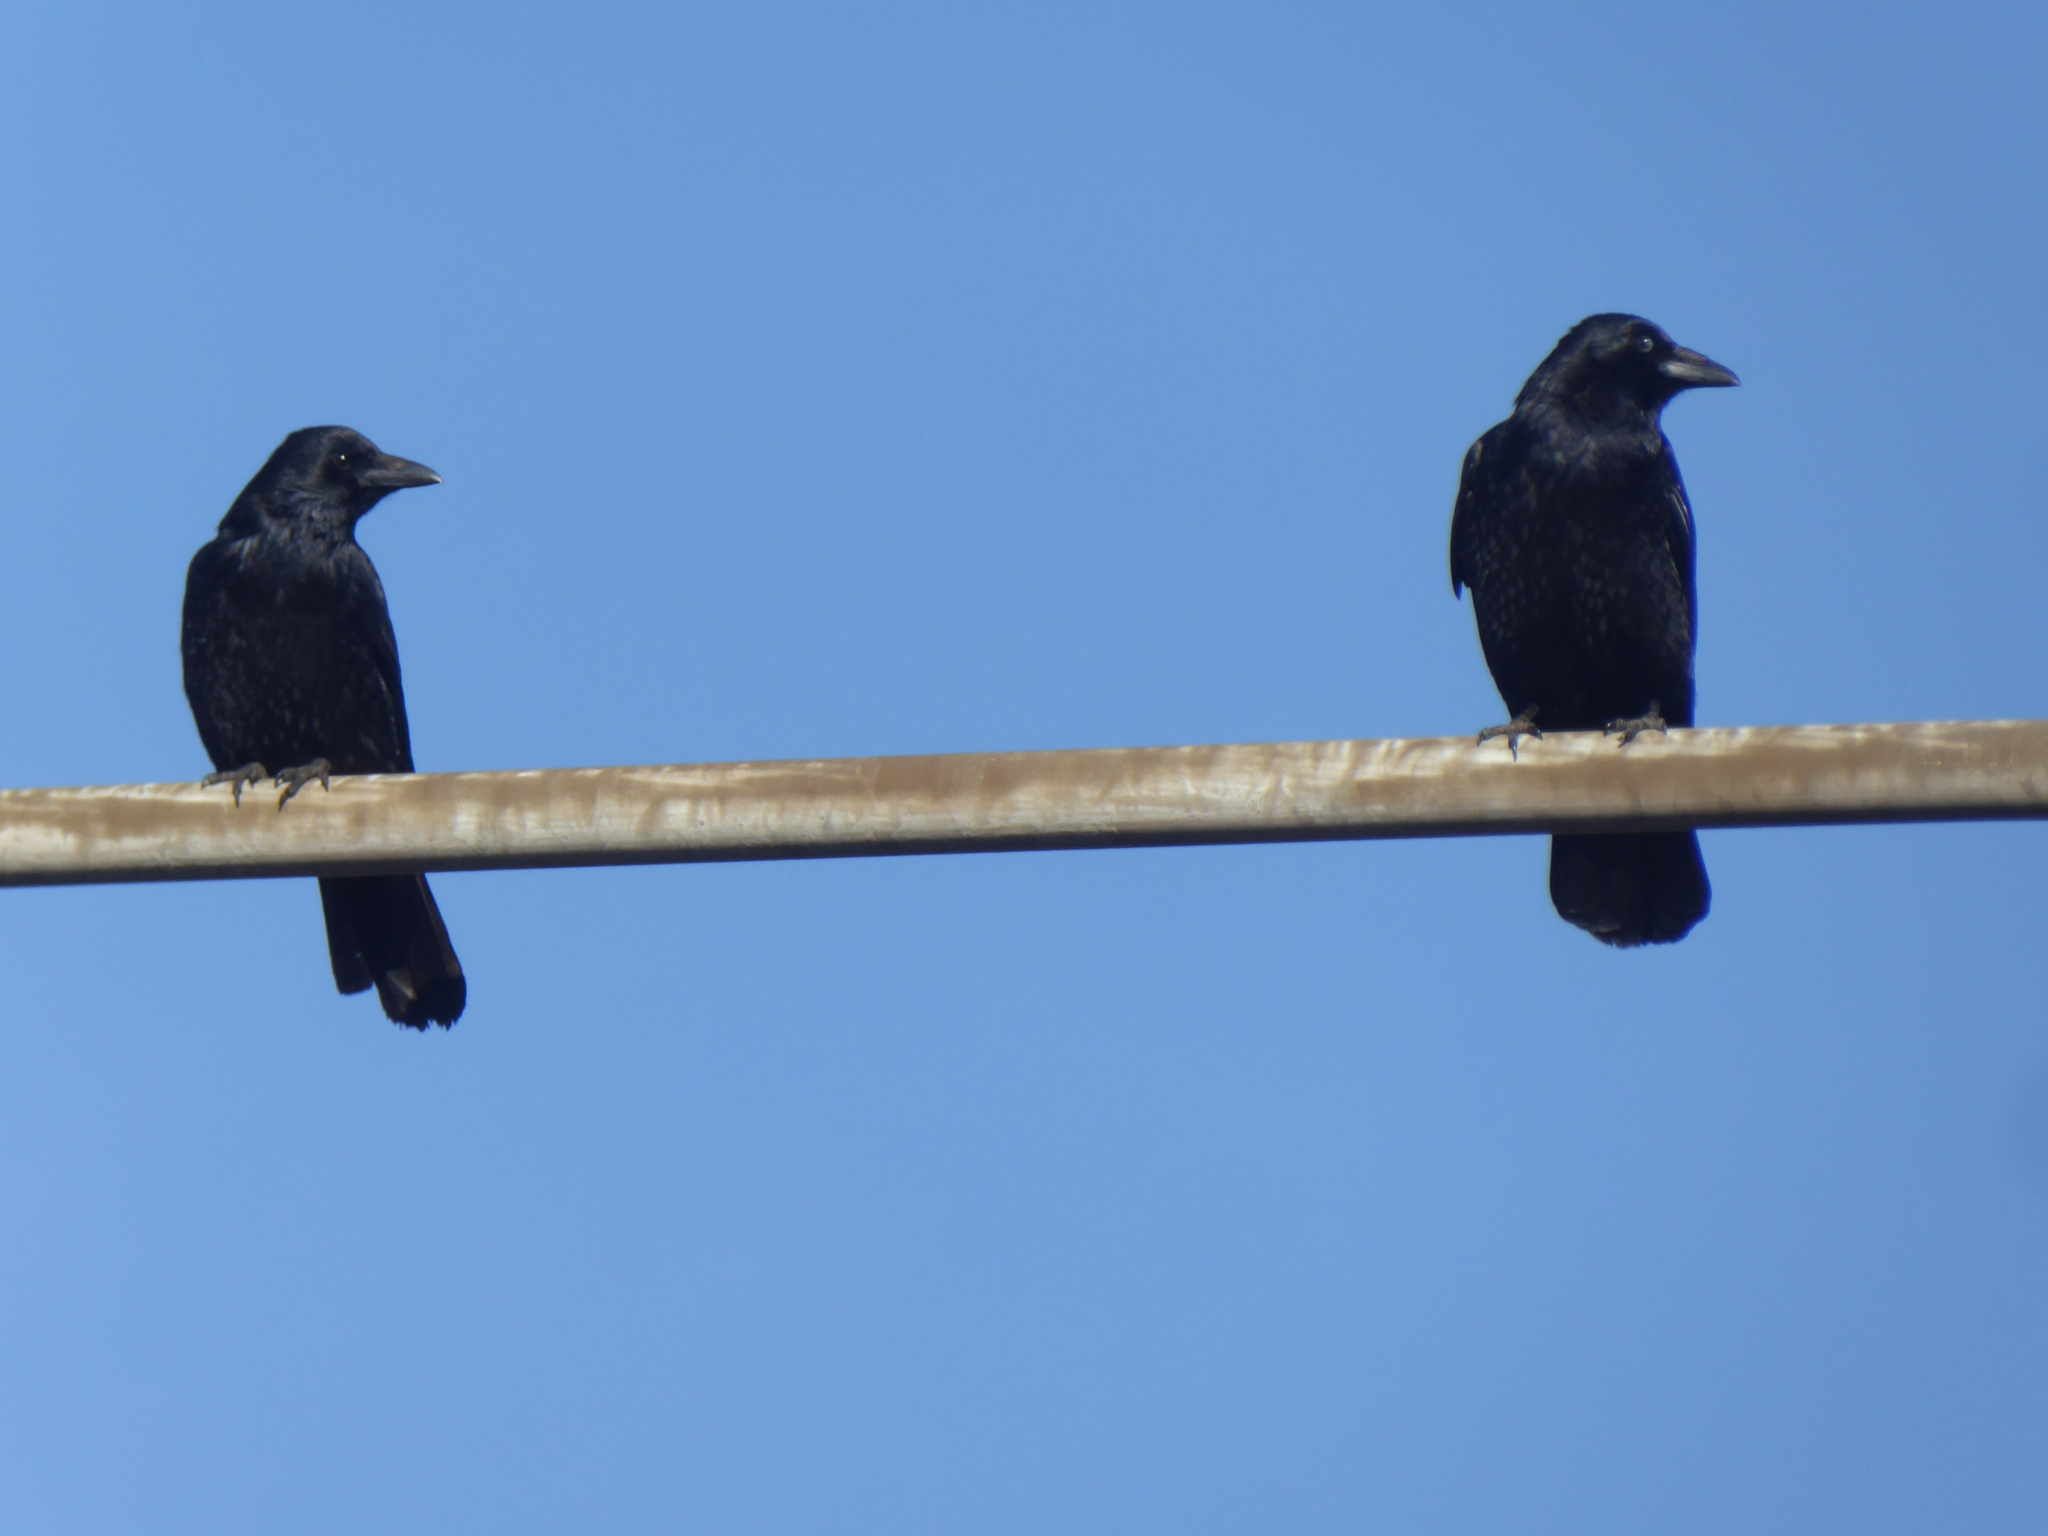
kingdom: Animalia
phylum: Chordata
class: Aves
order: Passeriformes
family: Corvidae
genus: Corvus
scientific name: Corvus corone
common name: Carrion crow
